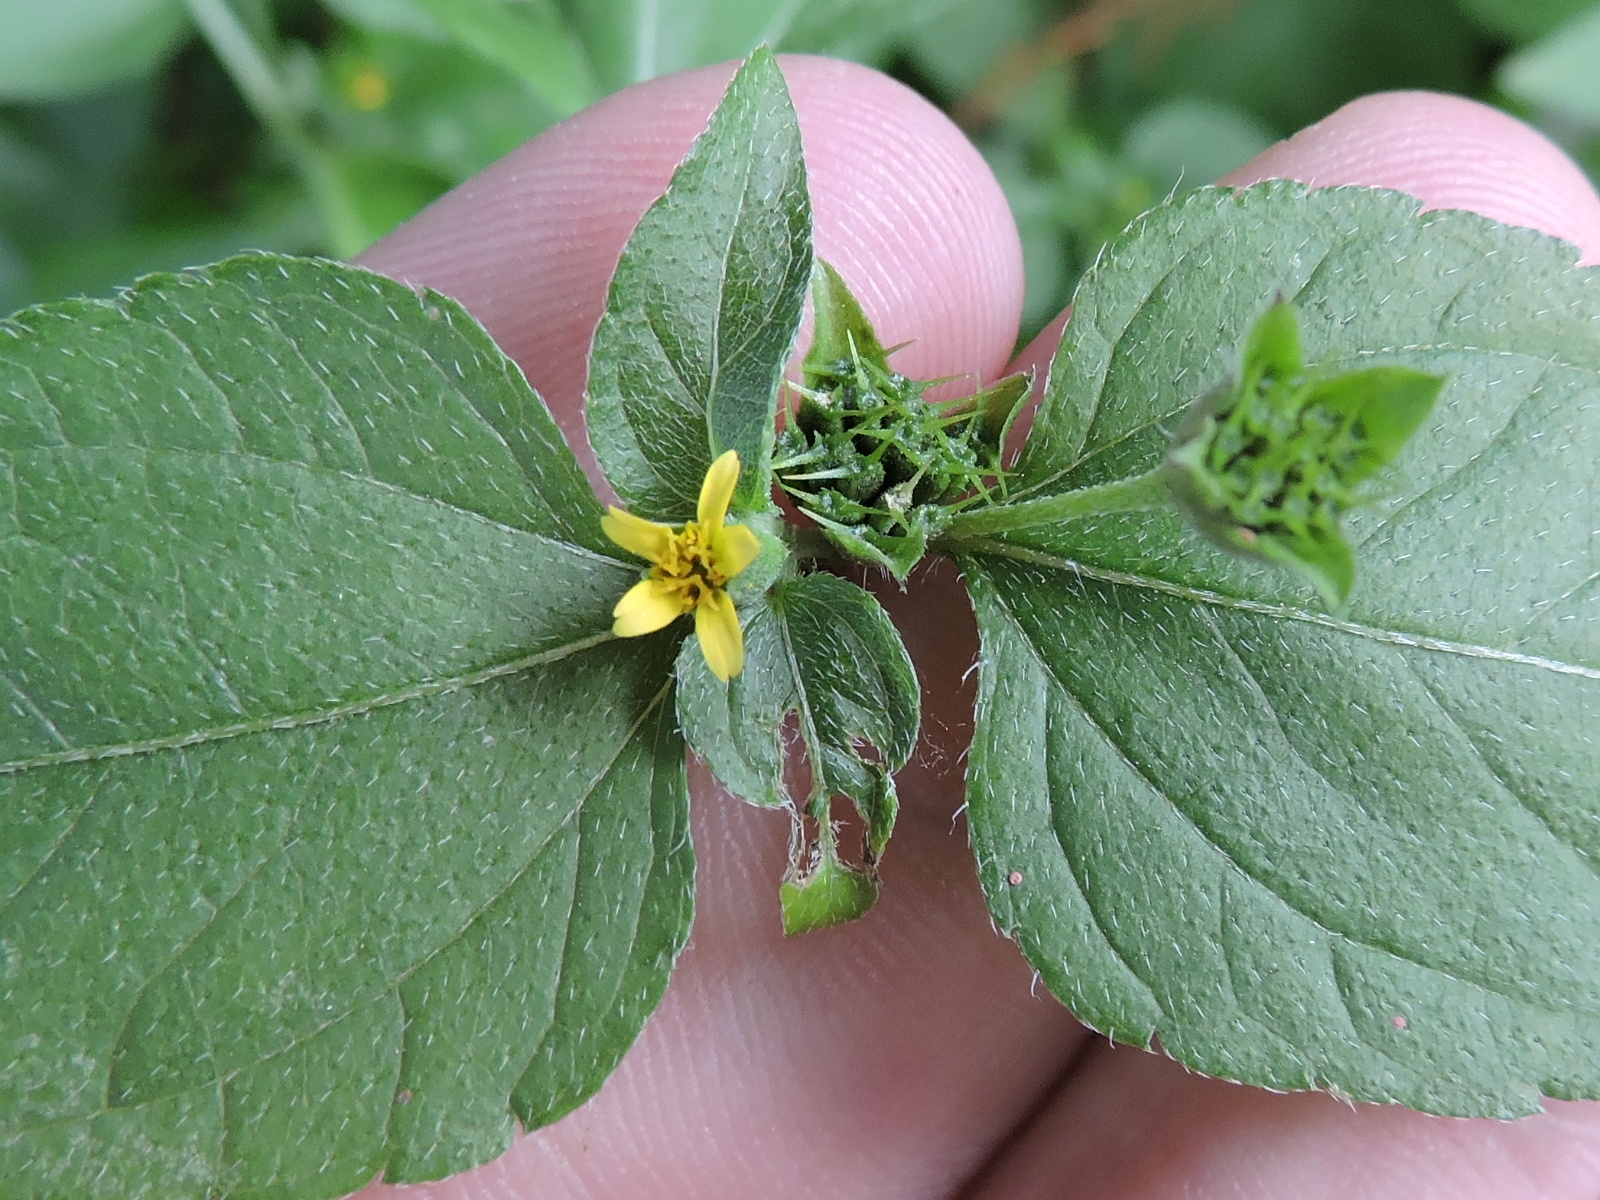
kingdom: Plantae
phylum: Tracheophyta
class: Magnoliopsida
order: Asterales
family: Asteraceae
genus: Calyptocarpus
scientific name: Calyptocarpus vialis
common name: Straggler daisy
